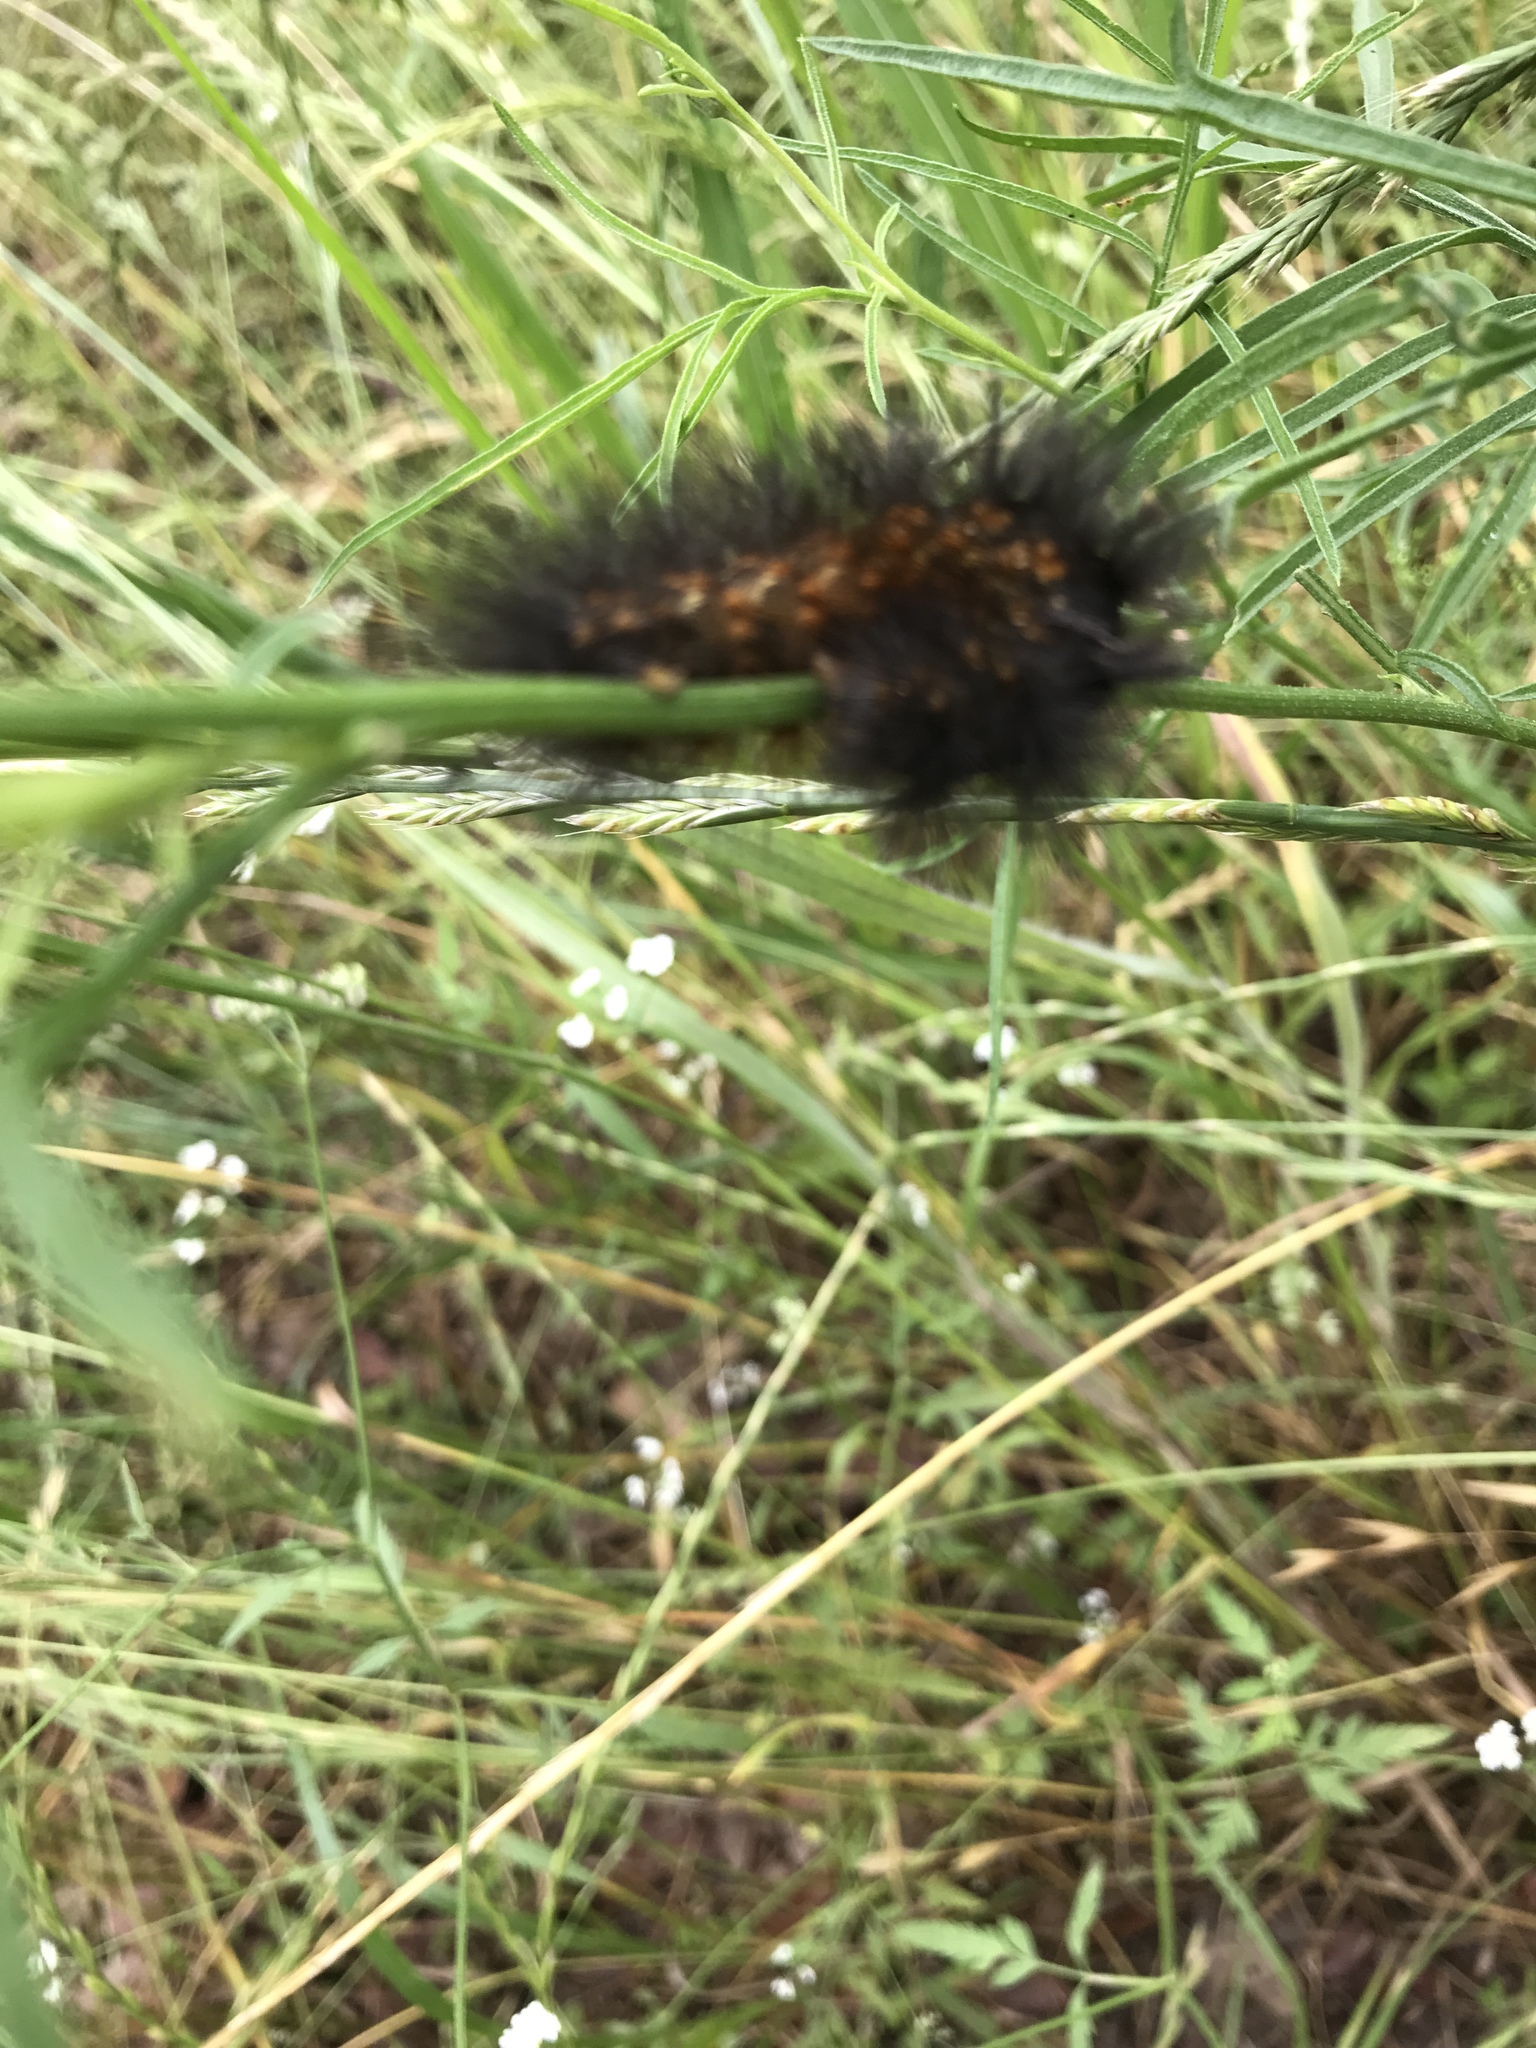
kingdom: Animalia
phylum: Arthropoda
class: Insecta
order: Lepidoptera
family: Erebidae
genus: Estigmene
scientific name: Estigmene acrea
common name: Salt marsh moth
